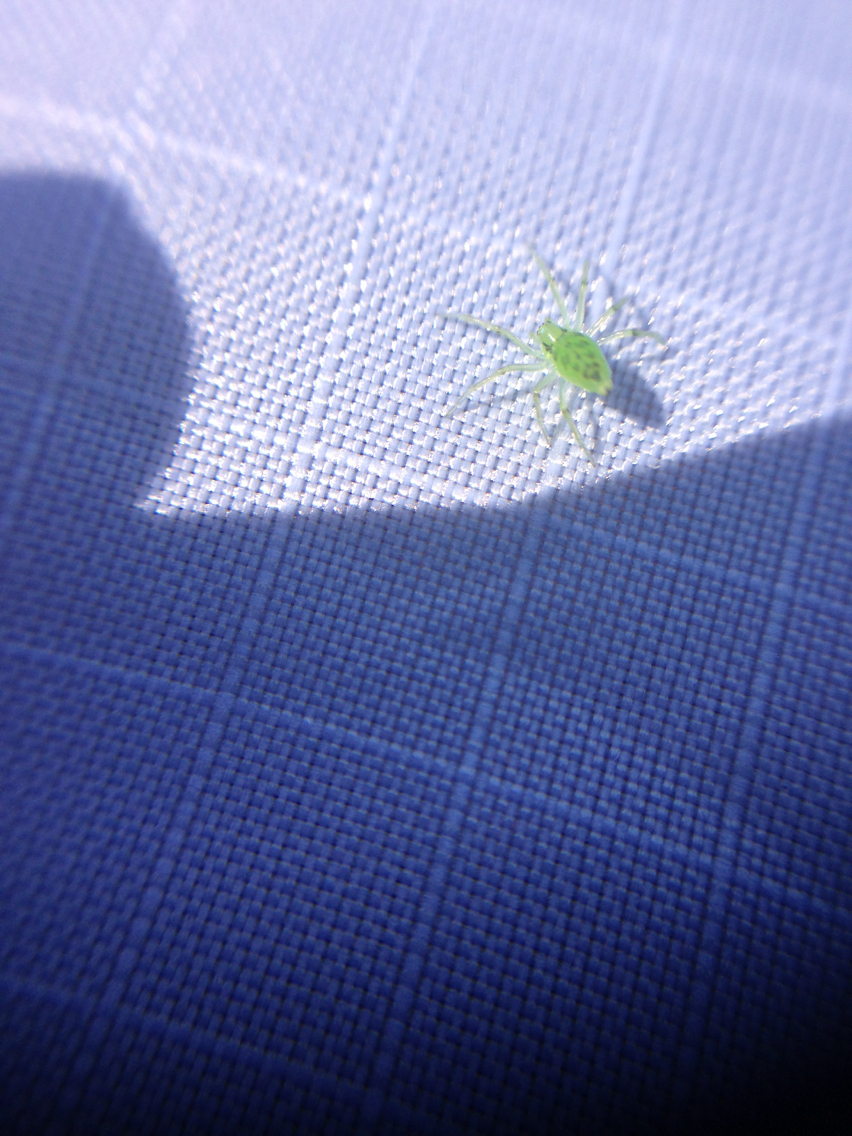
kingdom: Animalia
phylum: Arthropoda
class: Arachnida
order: Araneae
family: Oxyopidae
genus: Peucetia
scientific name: Peucetia viridans
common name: Lynx spiders
